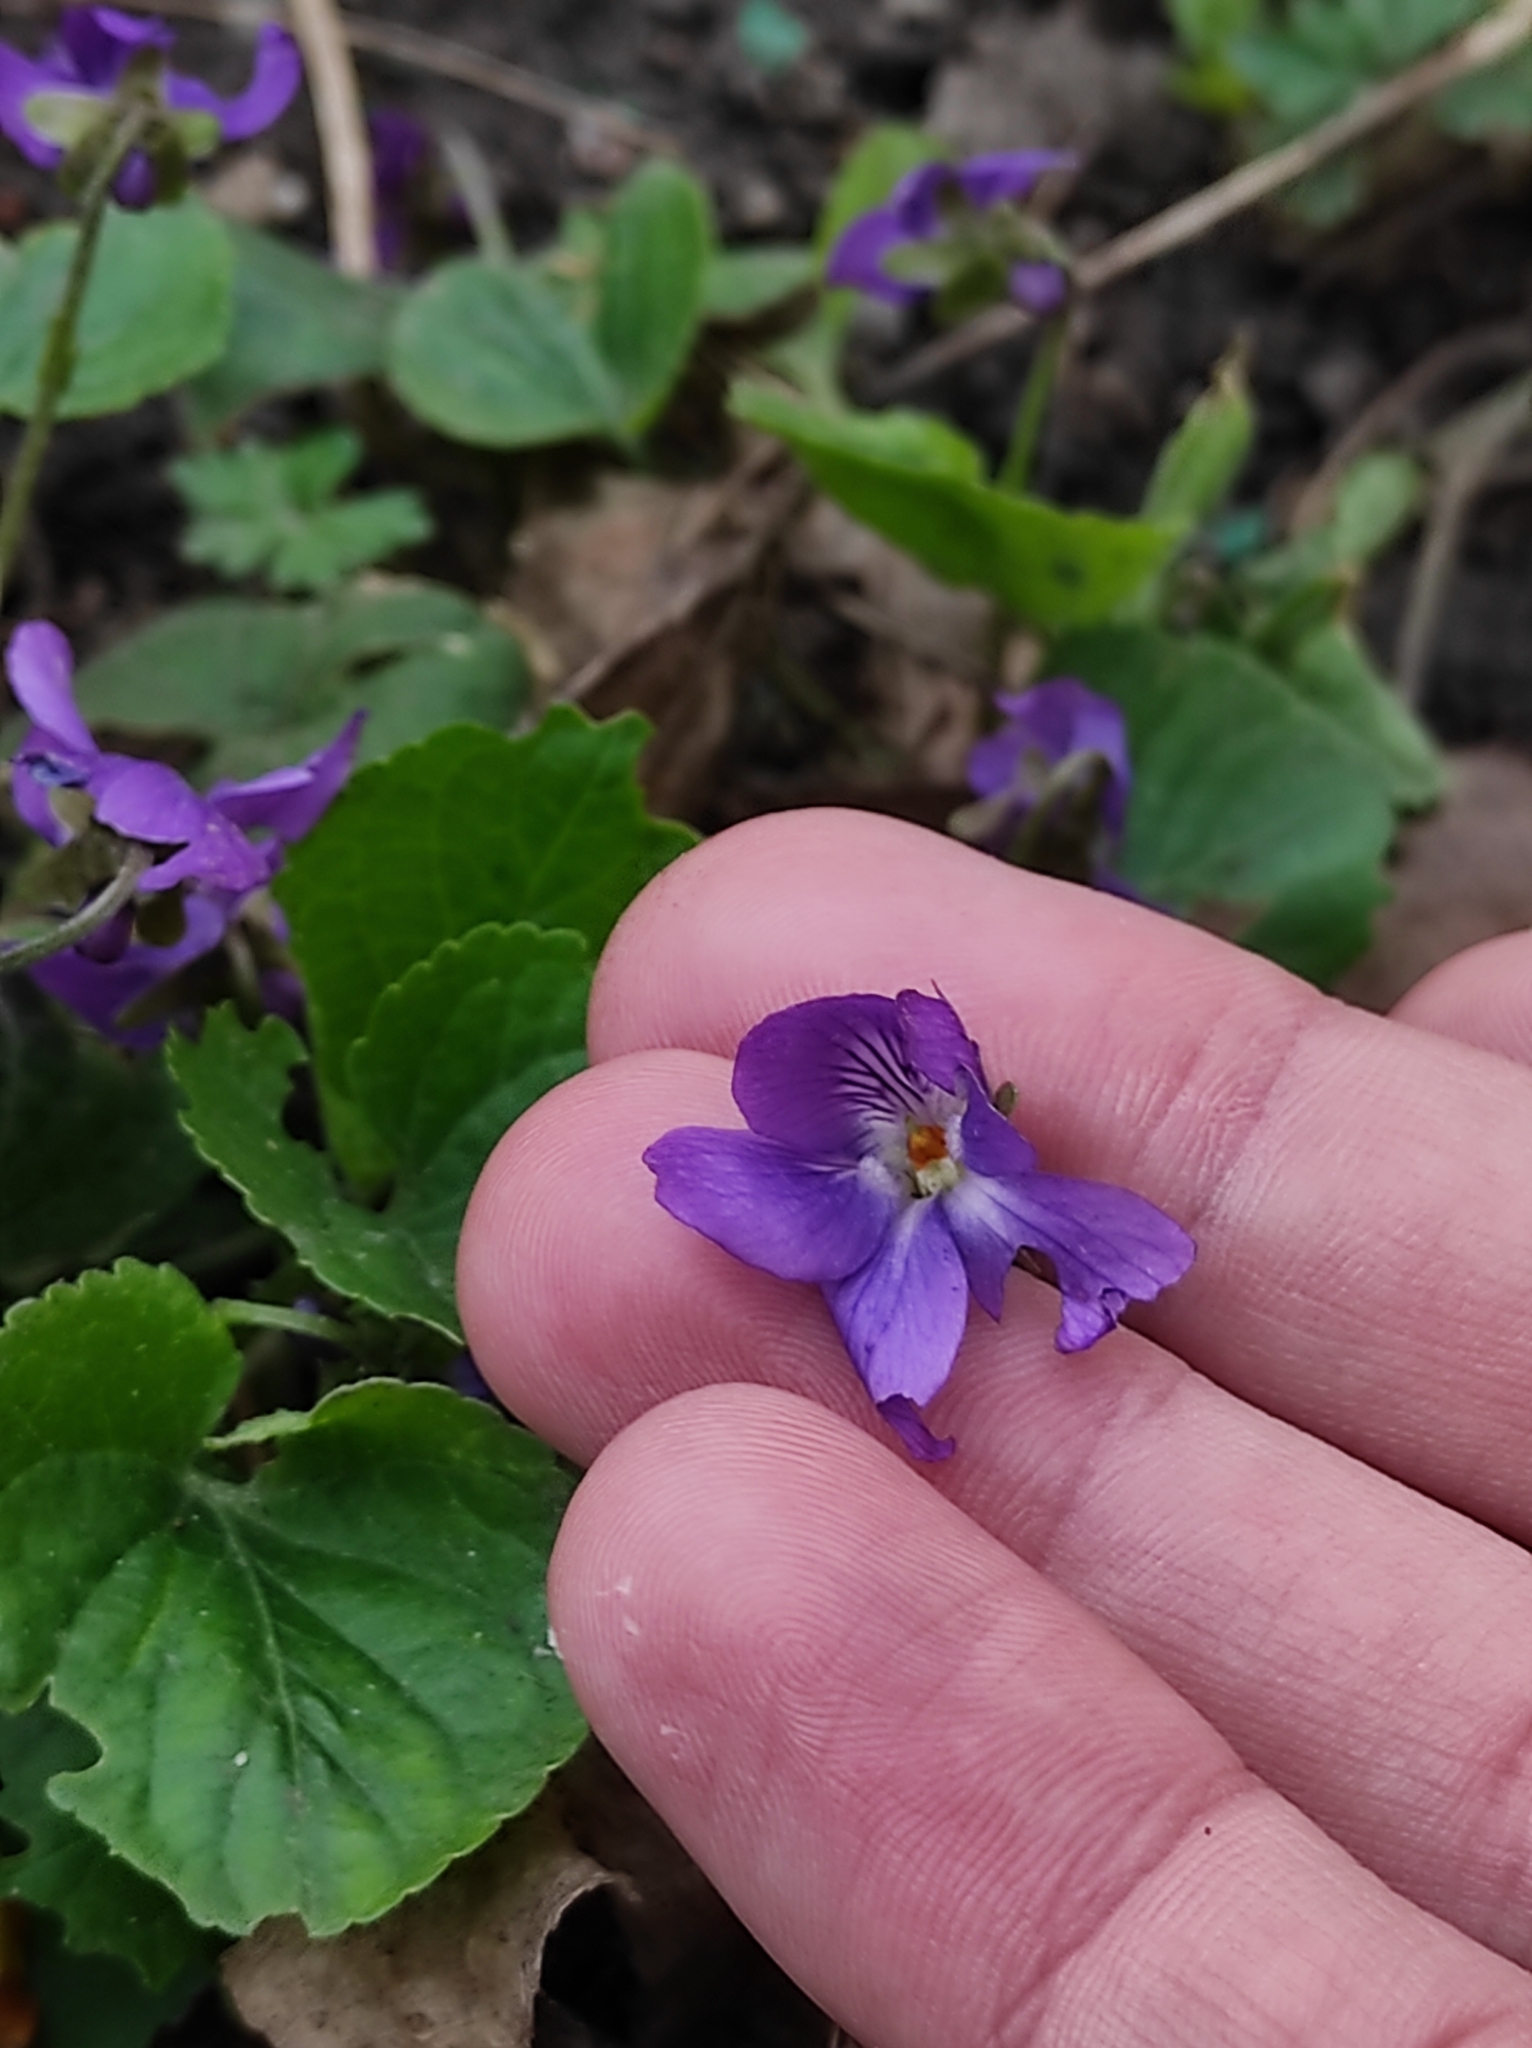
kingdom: Plantae
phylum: Tracheophyta
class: Magnoliopsida
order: Malpighiales
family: Violaceae
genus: Viola
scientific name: Viola odorata
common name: Sweet violet
